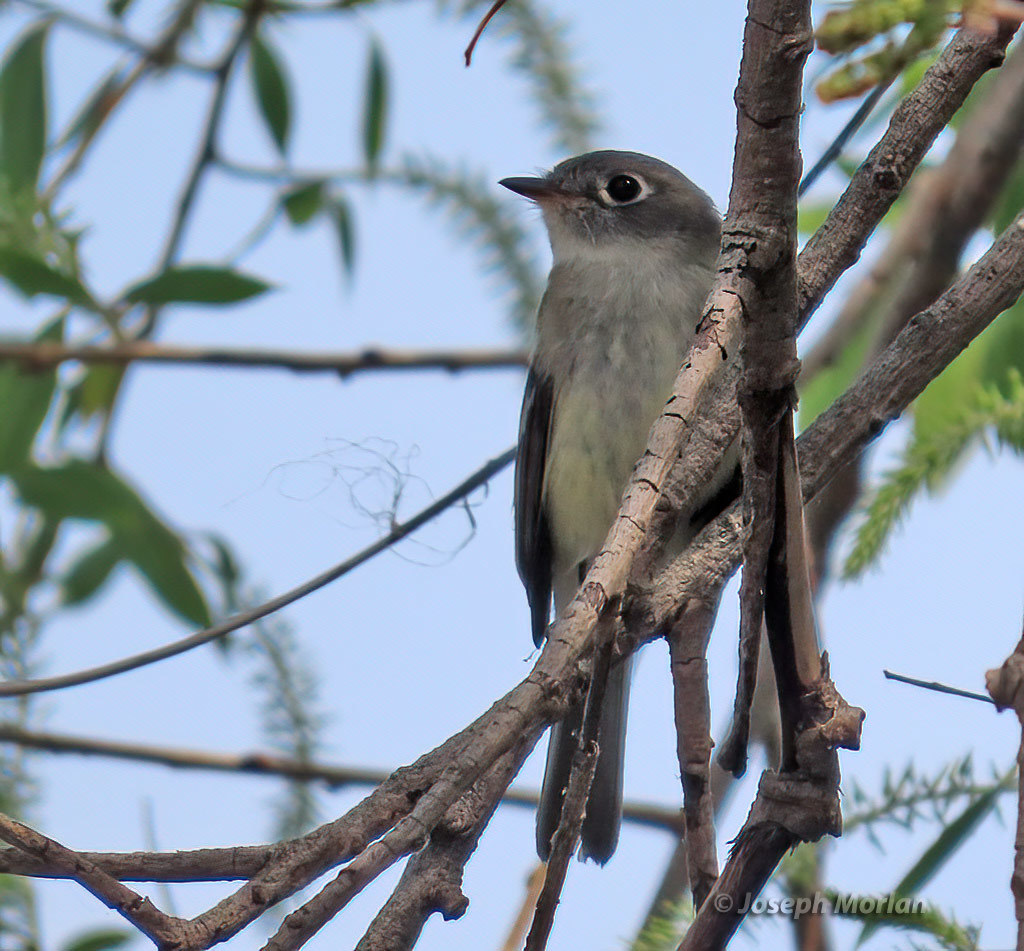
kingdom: Animalia
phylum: Chordata
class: Aves
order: Passeriformes
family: Tyrannidae
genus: Empidonax
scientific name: Empidonax minimus
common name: Least flycatcher
